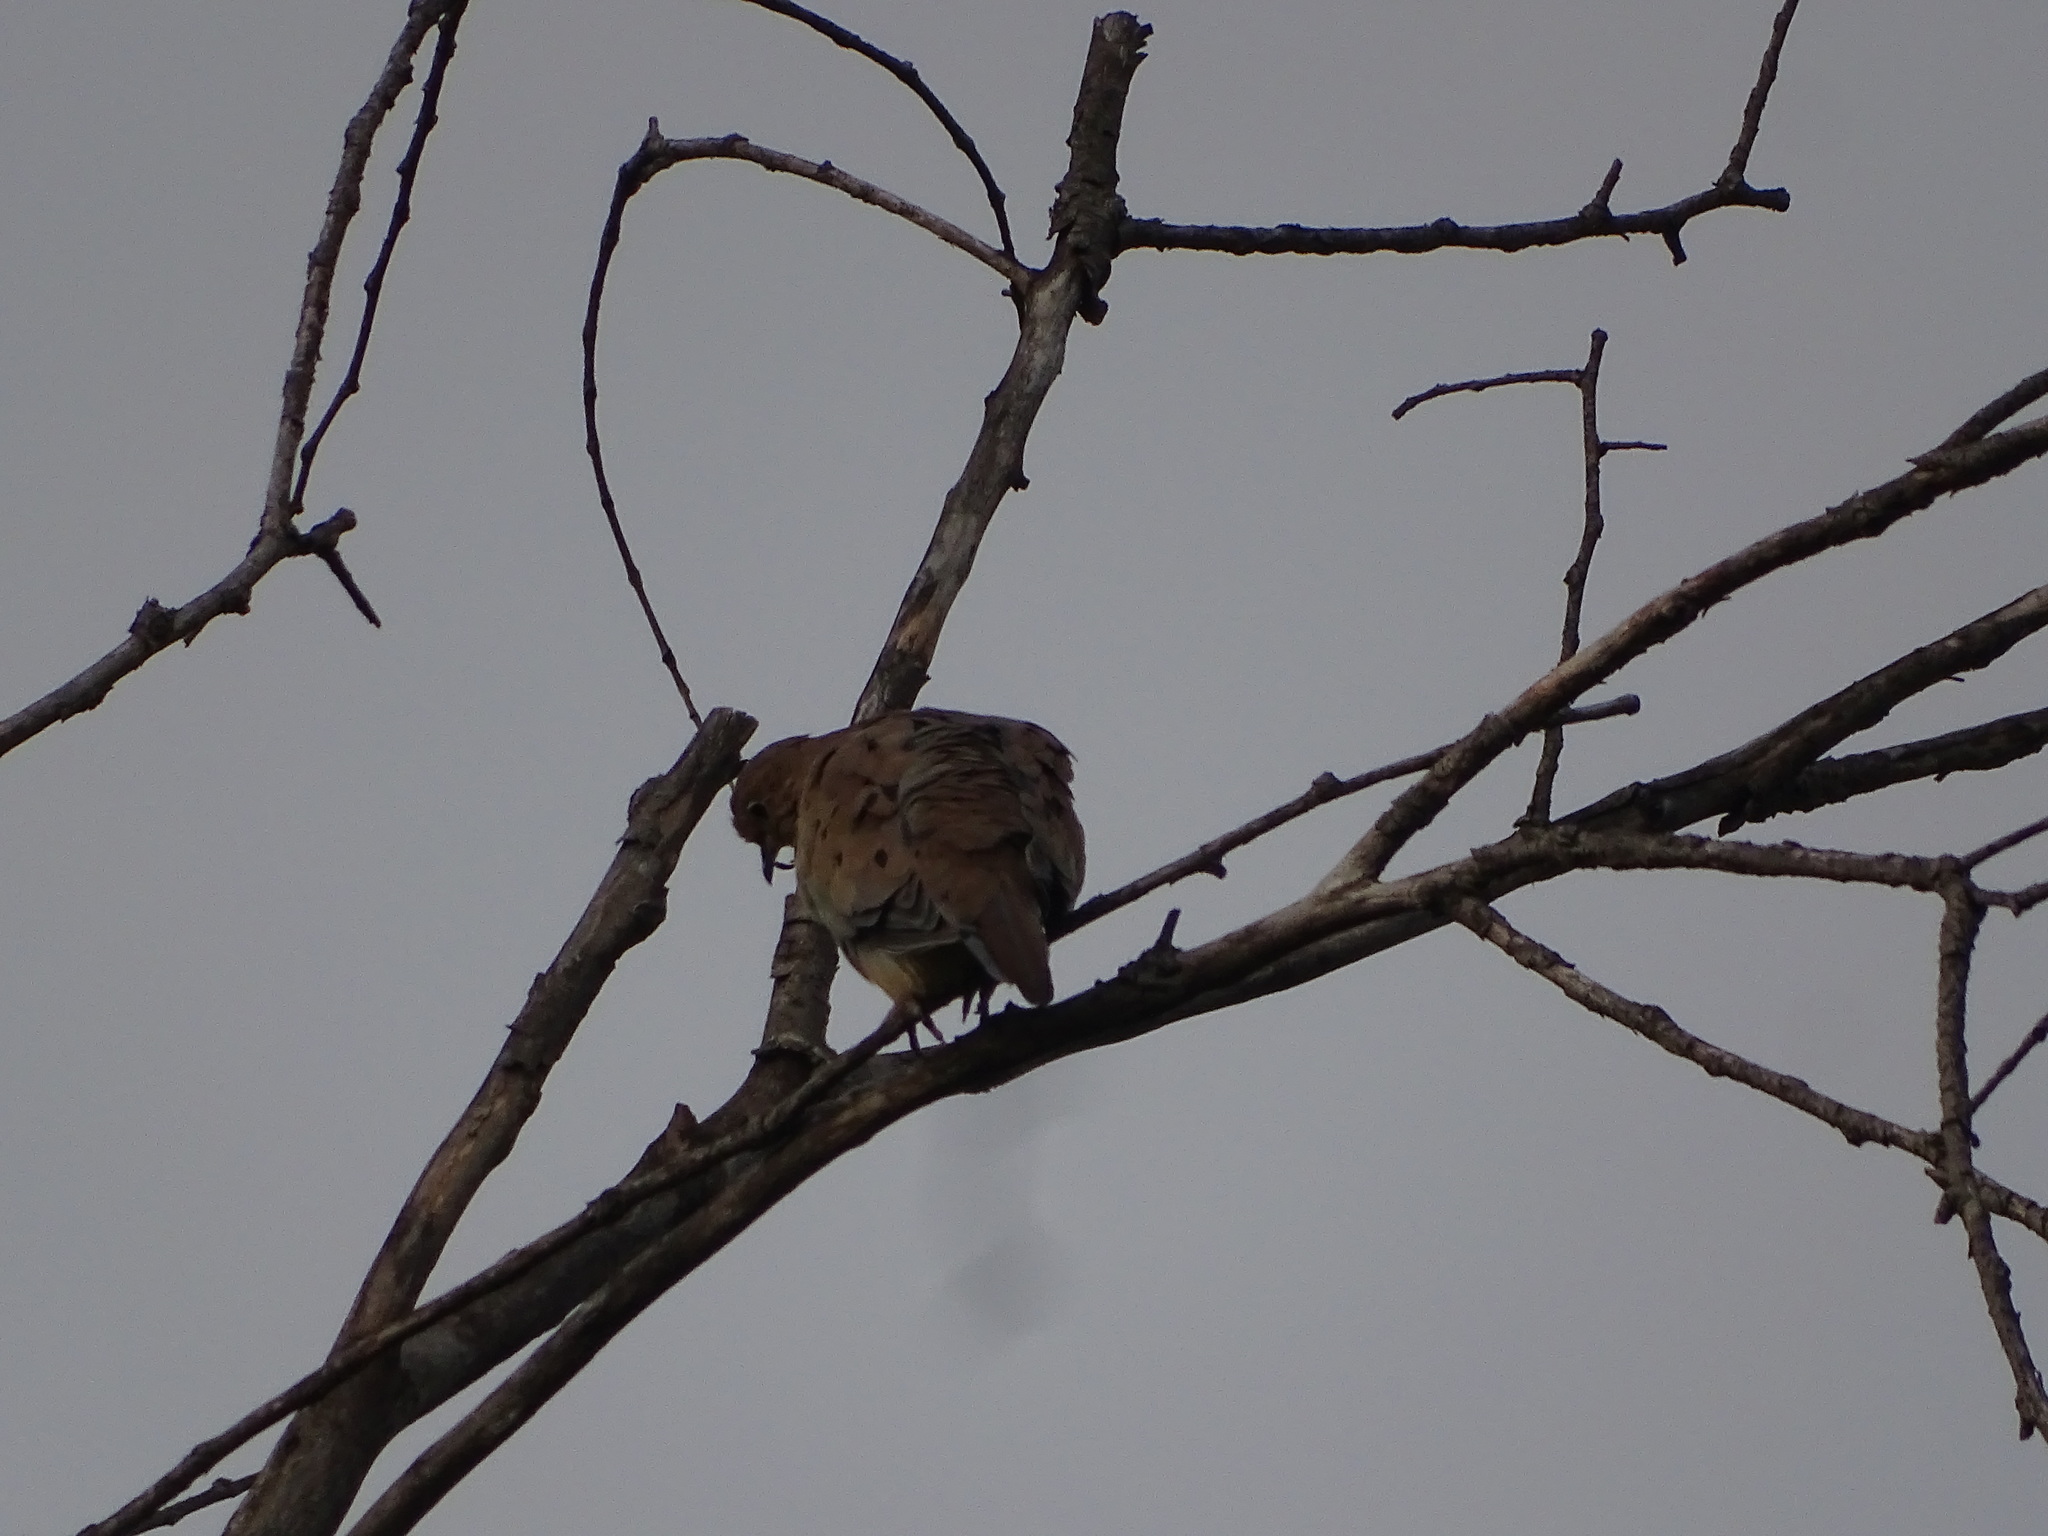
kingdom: Animalia
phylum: Chordata
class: Aves
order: Columbiformes
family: Columbidae
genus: Zenaida
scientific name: Zenaida macroura
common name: Mourning dove
